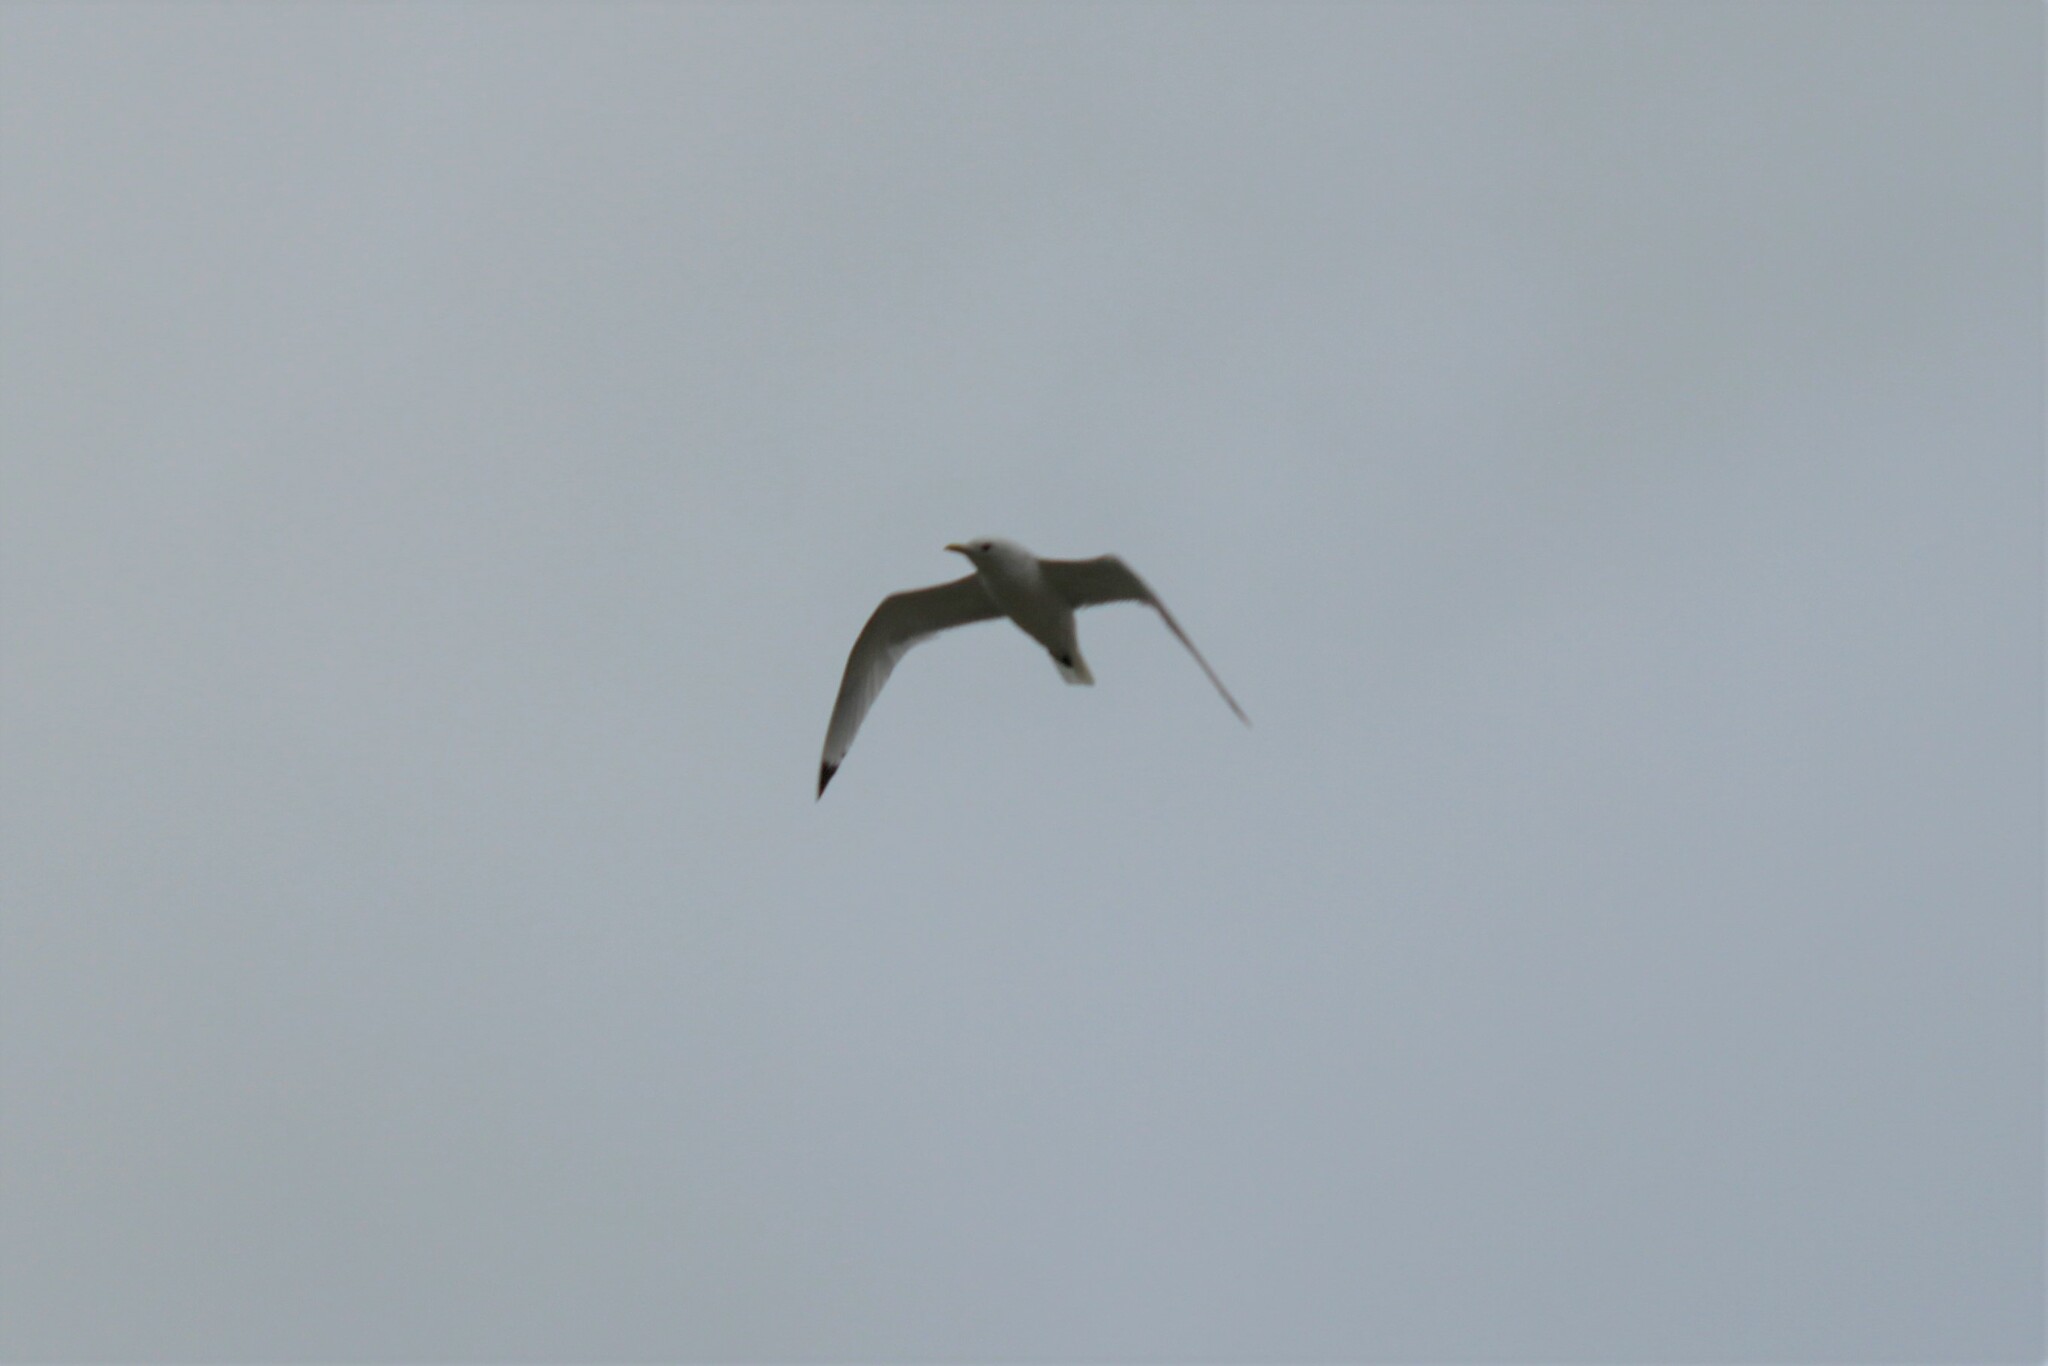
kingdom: Animalia
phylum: Chordata
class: Aves
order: Charadriiformes
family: Laridae
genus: Rissa
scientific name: Rissa tridactyla
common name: Black-legged kittiwake
